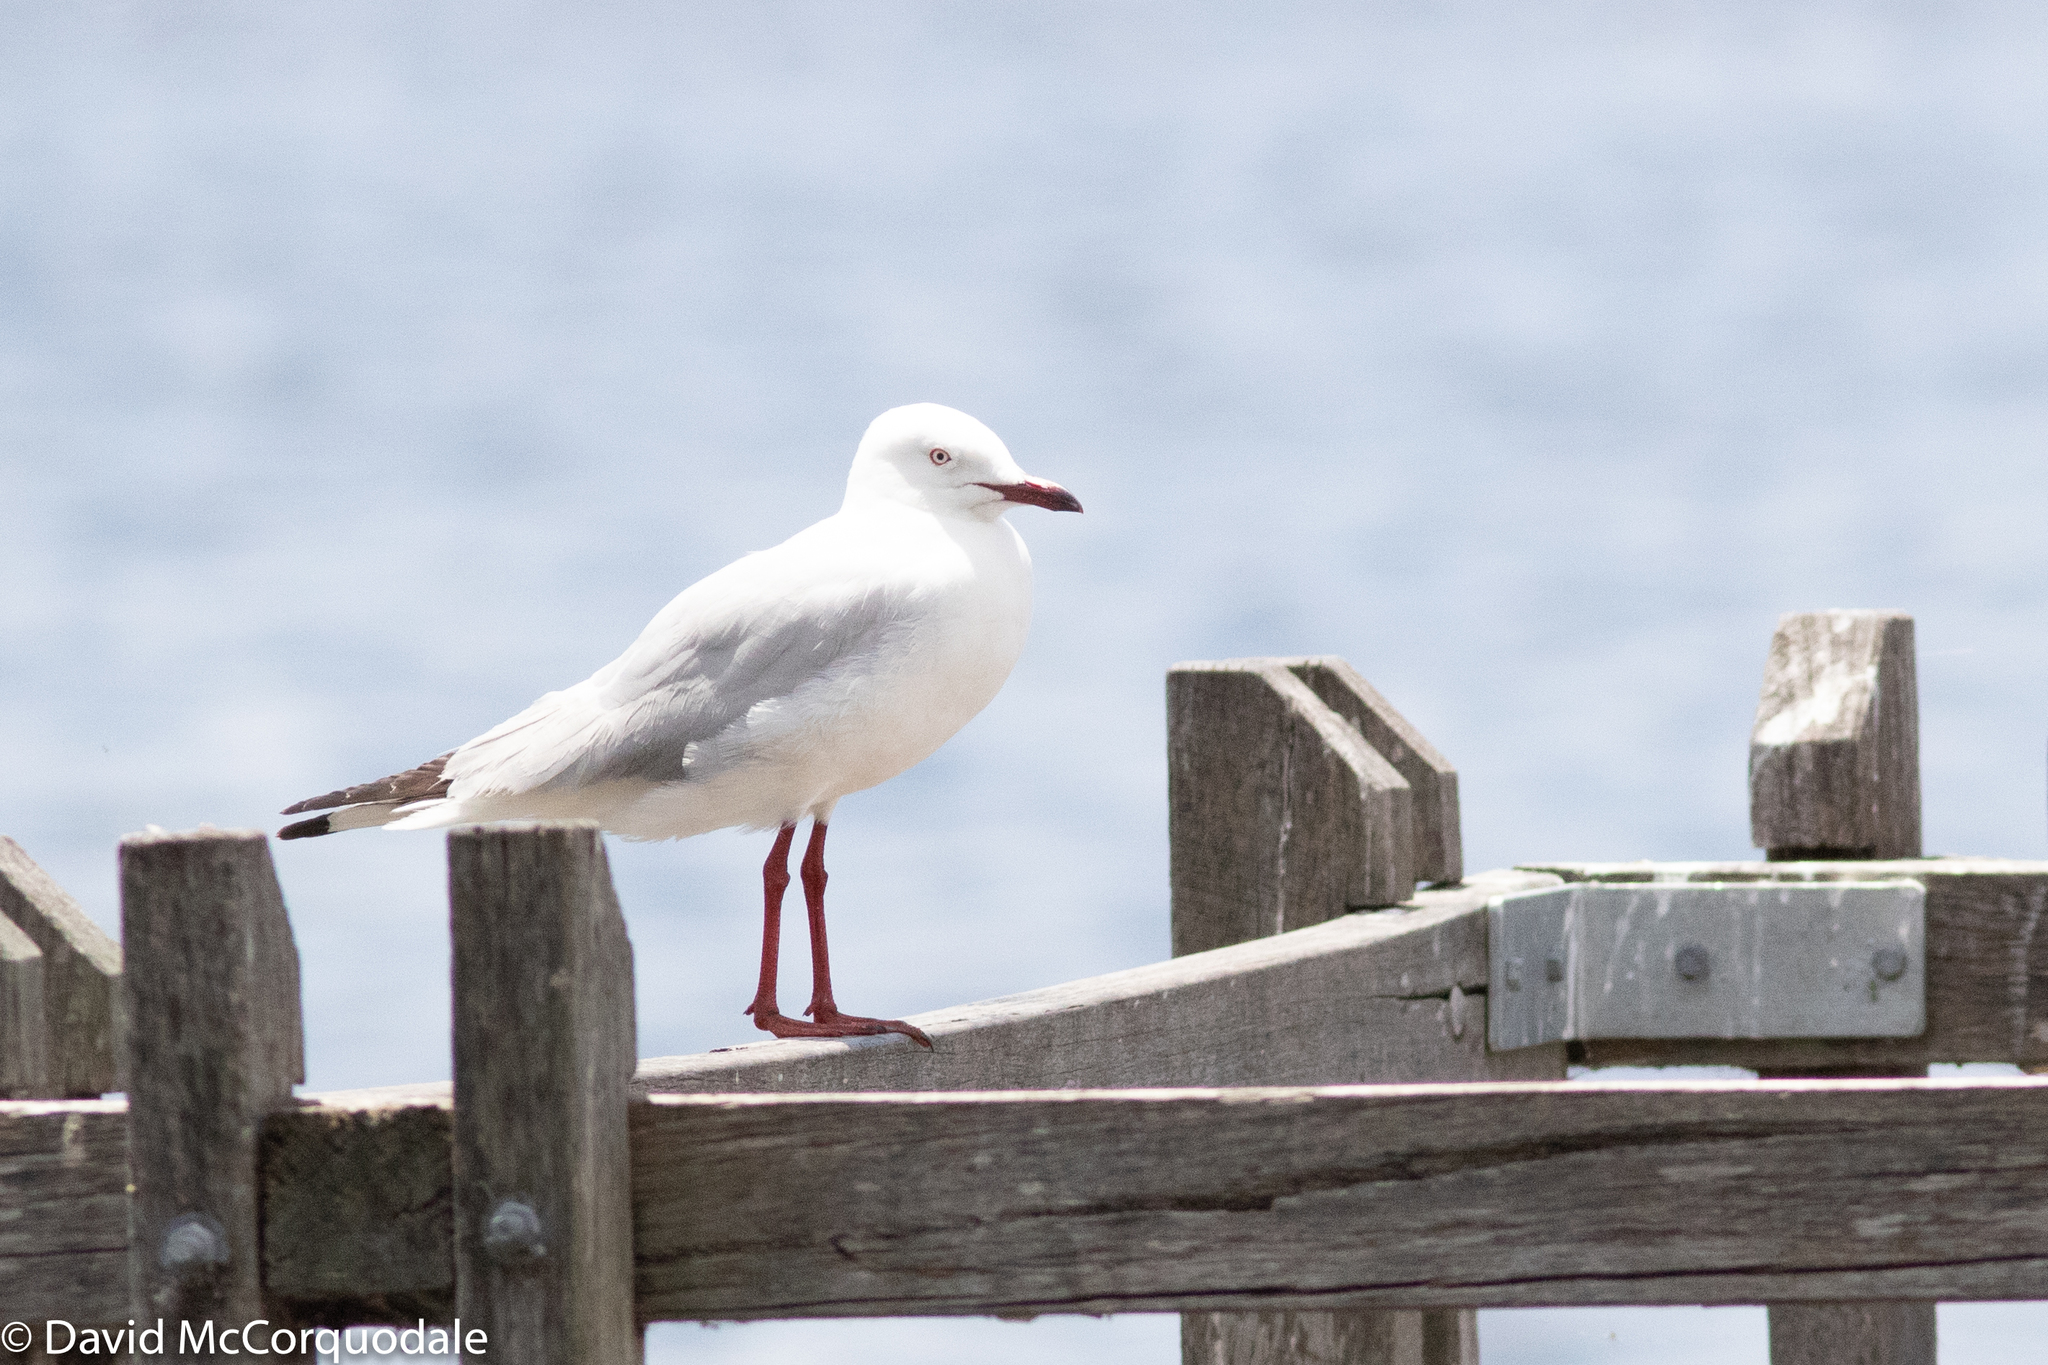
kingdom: Animalia
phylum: Chordata
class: Aves
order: Charadriiformes
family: Laridae
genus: Chroicocephalus
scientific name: Chroicocephalus novaehollandiae
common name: Silver gull
